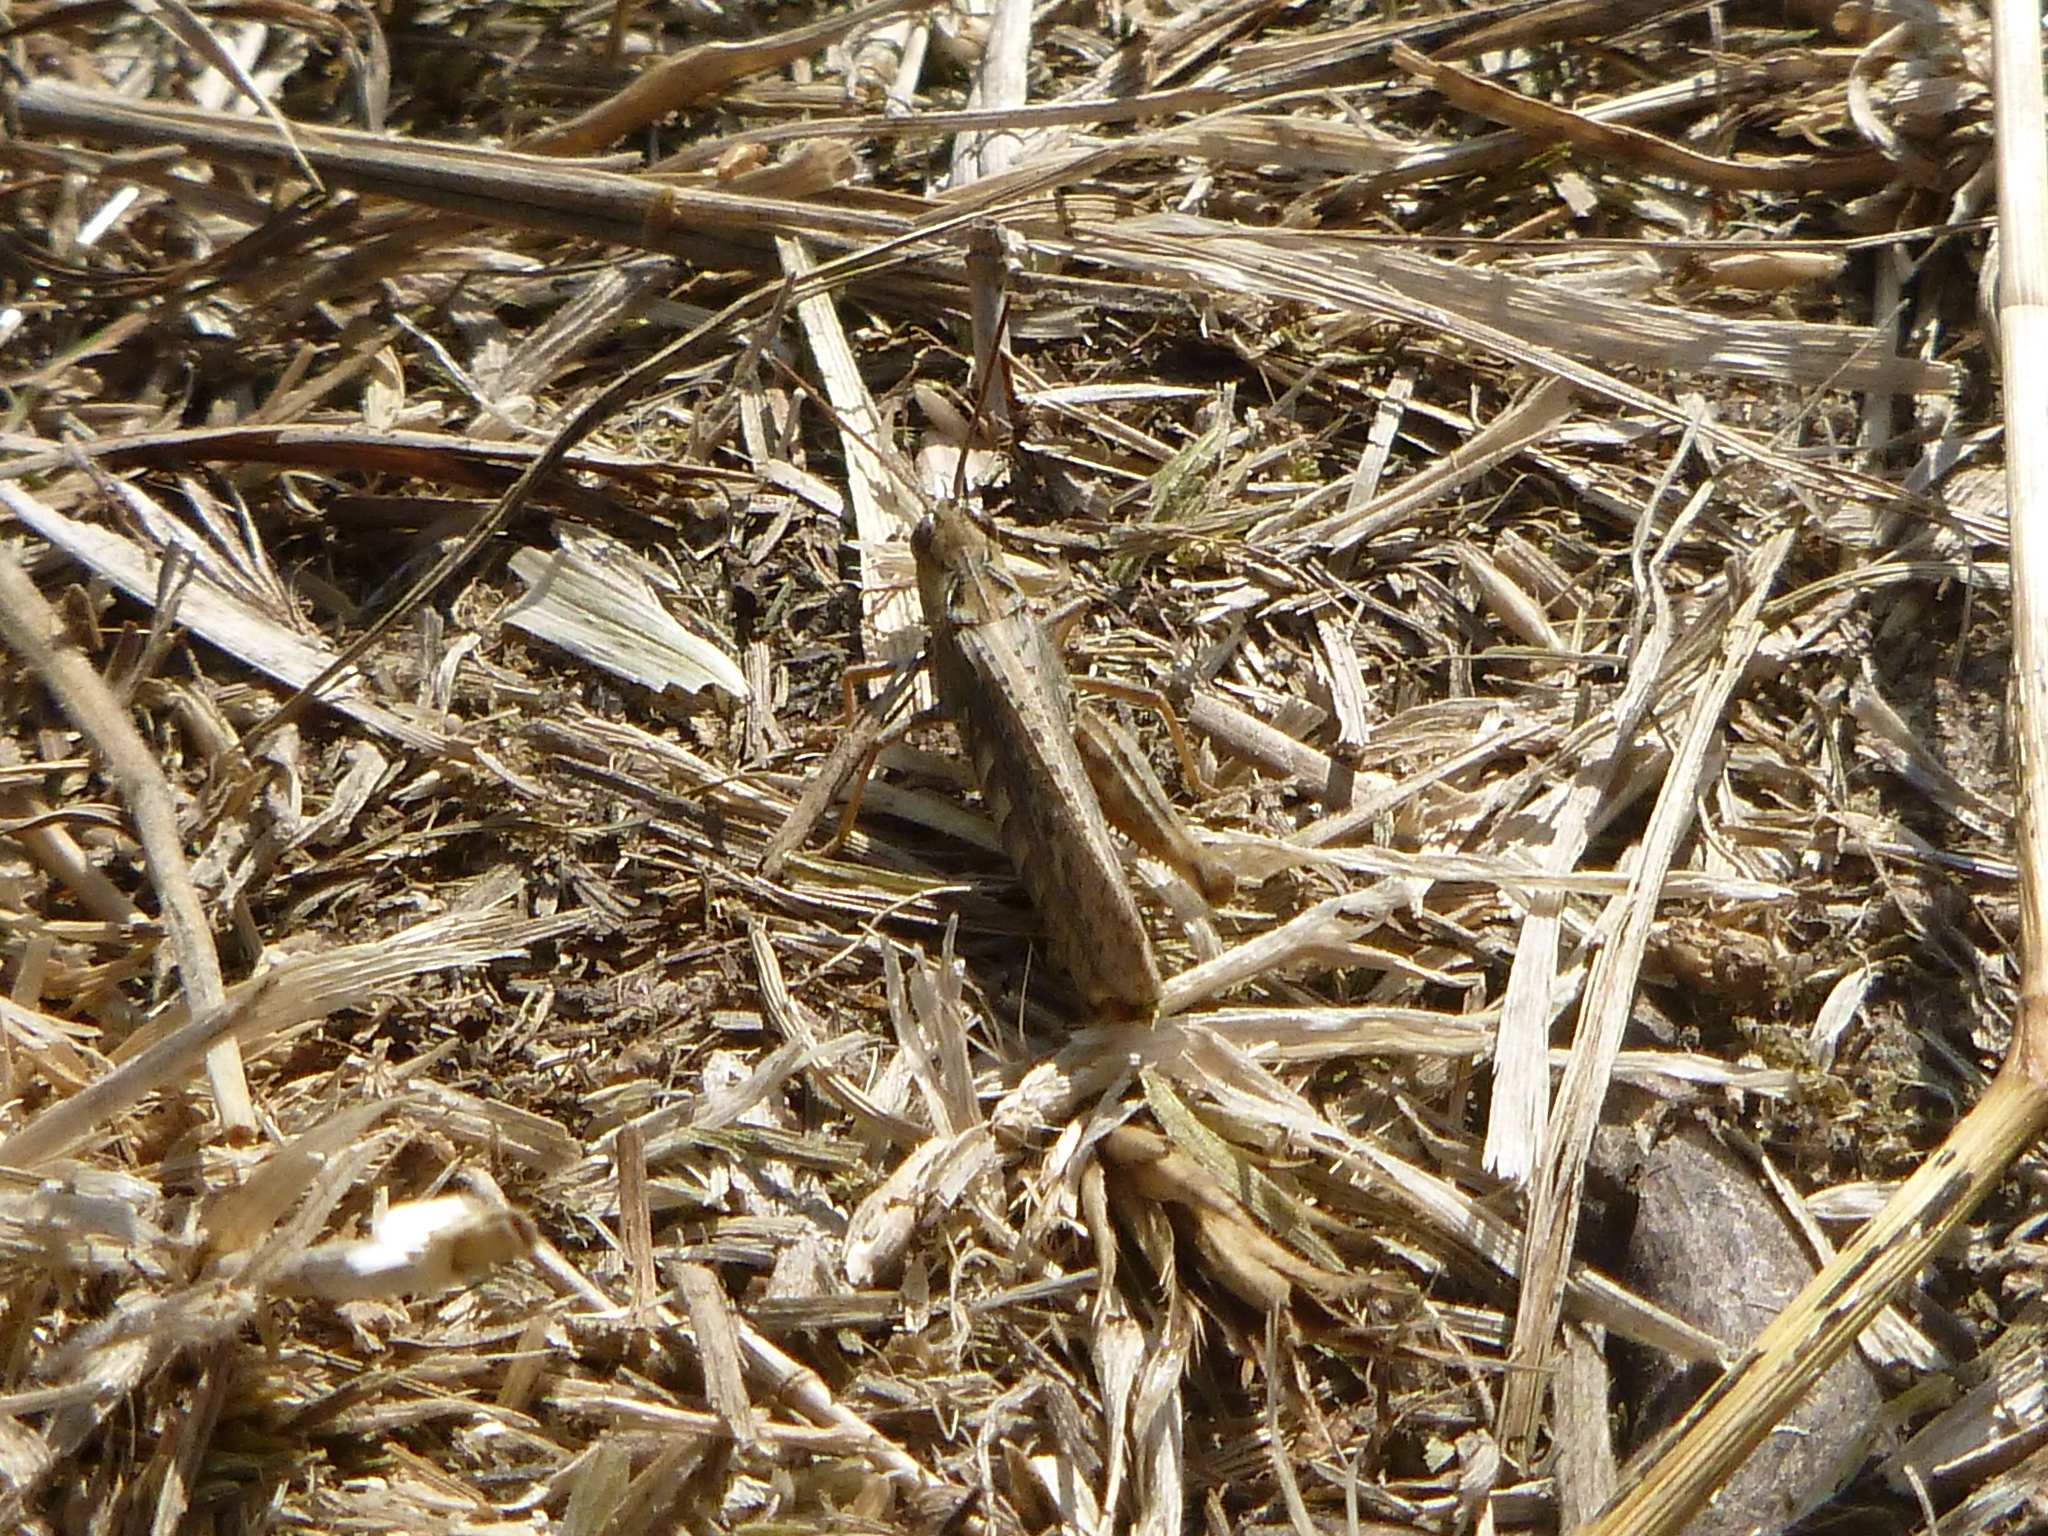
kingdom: Animalia
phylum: Arthropoda
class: Insecta
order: Orthoptera
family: Acrididae
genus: Chorthippus
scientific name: Chorthippus brunneus
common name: Field grasshopper
